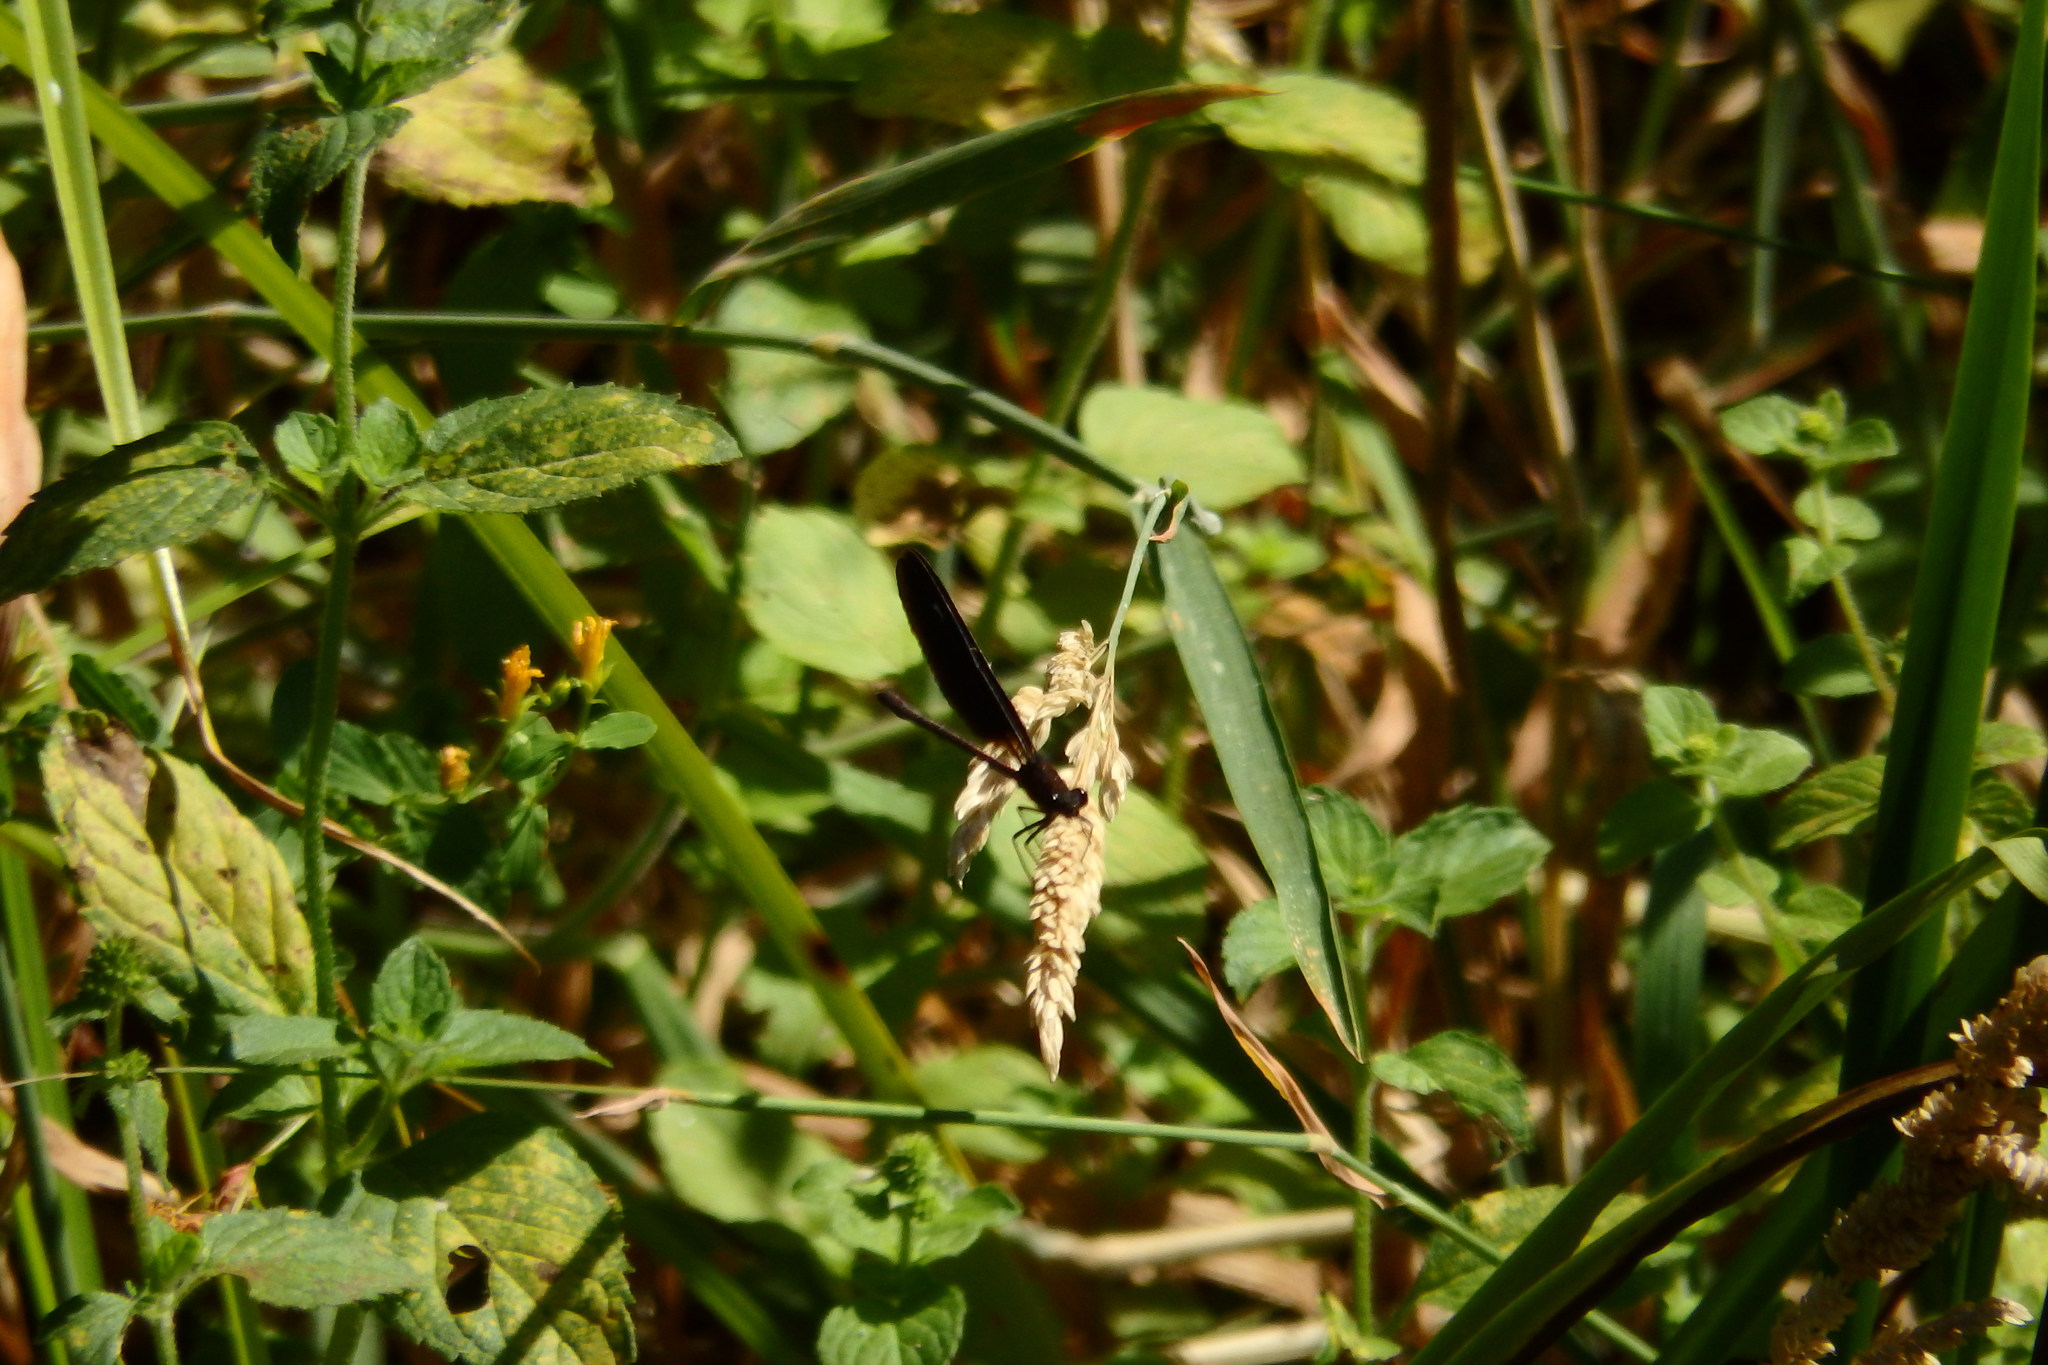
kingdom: Animalia
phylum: Arthropoda
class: Insecta
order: Odonata
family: Calopterygidae
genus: Calopteryx
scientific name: Calopteryx haemorrhoidalis
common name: Copper demoiselle
